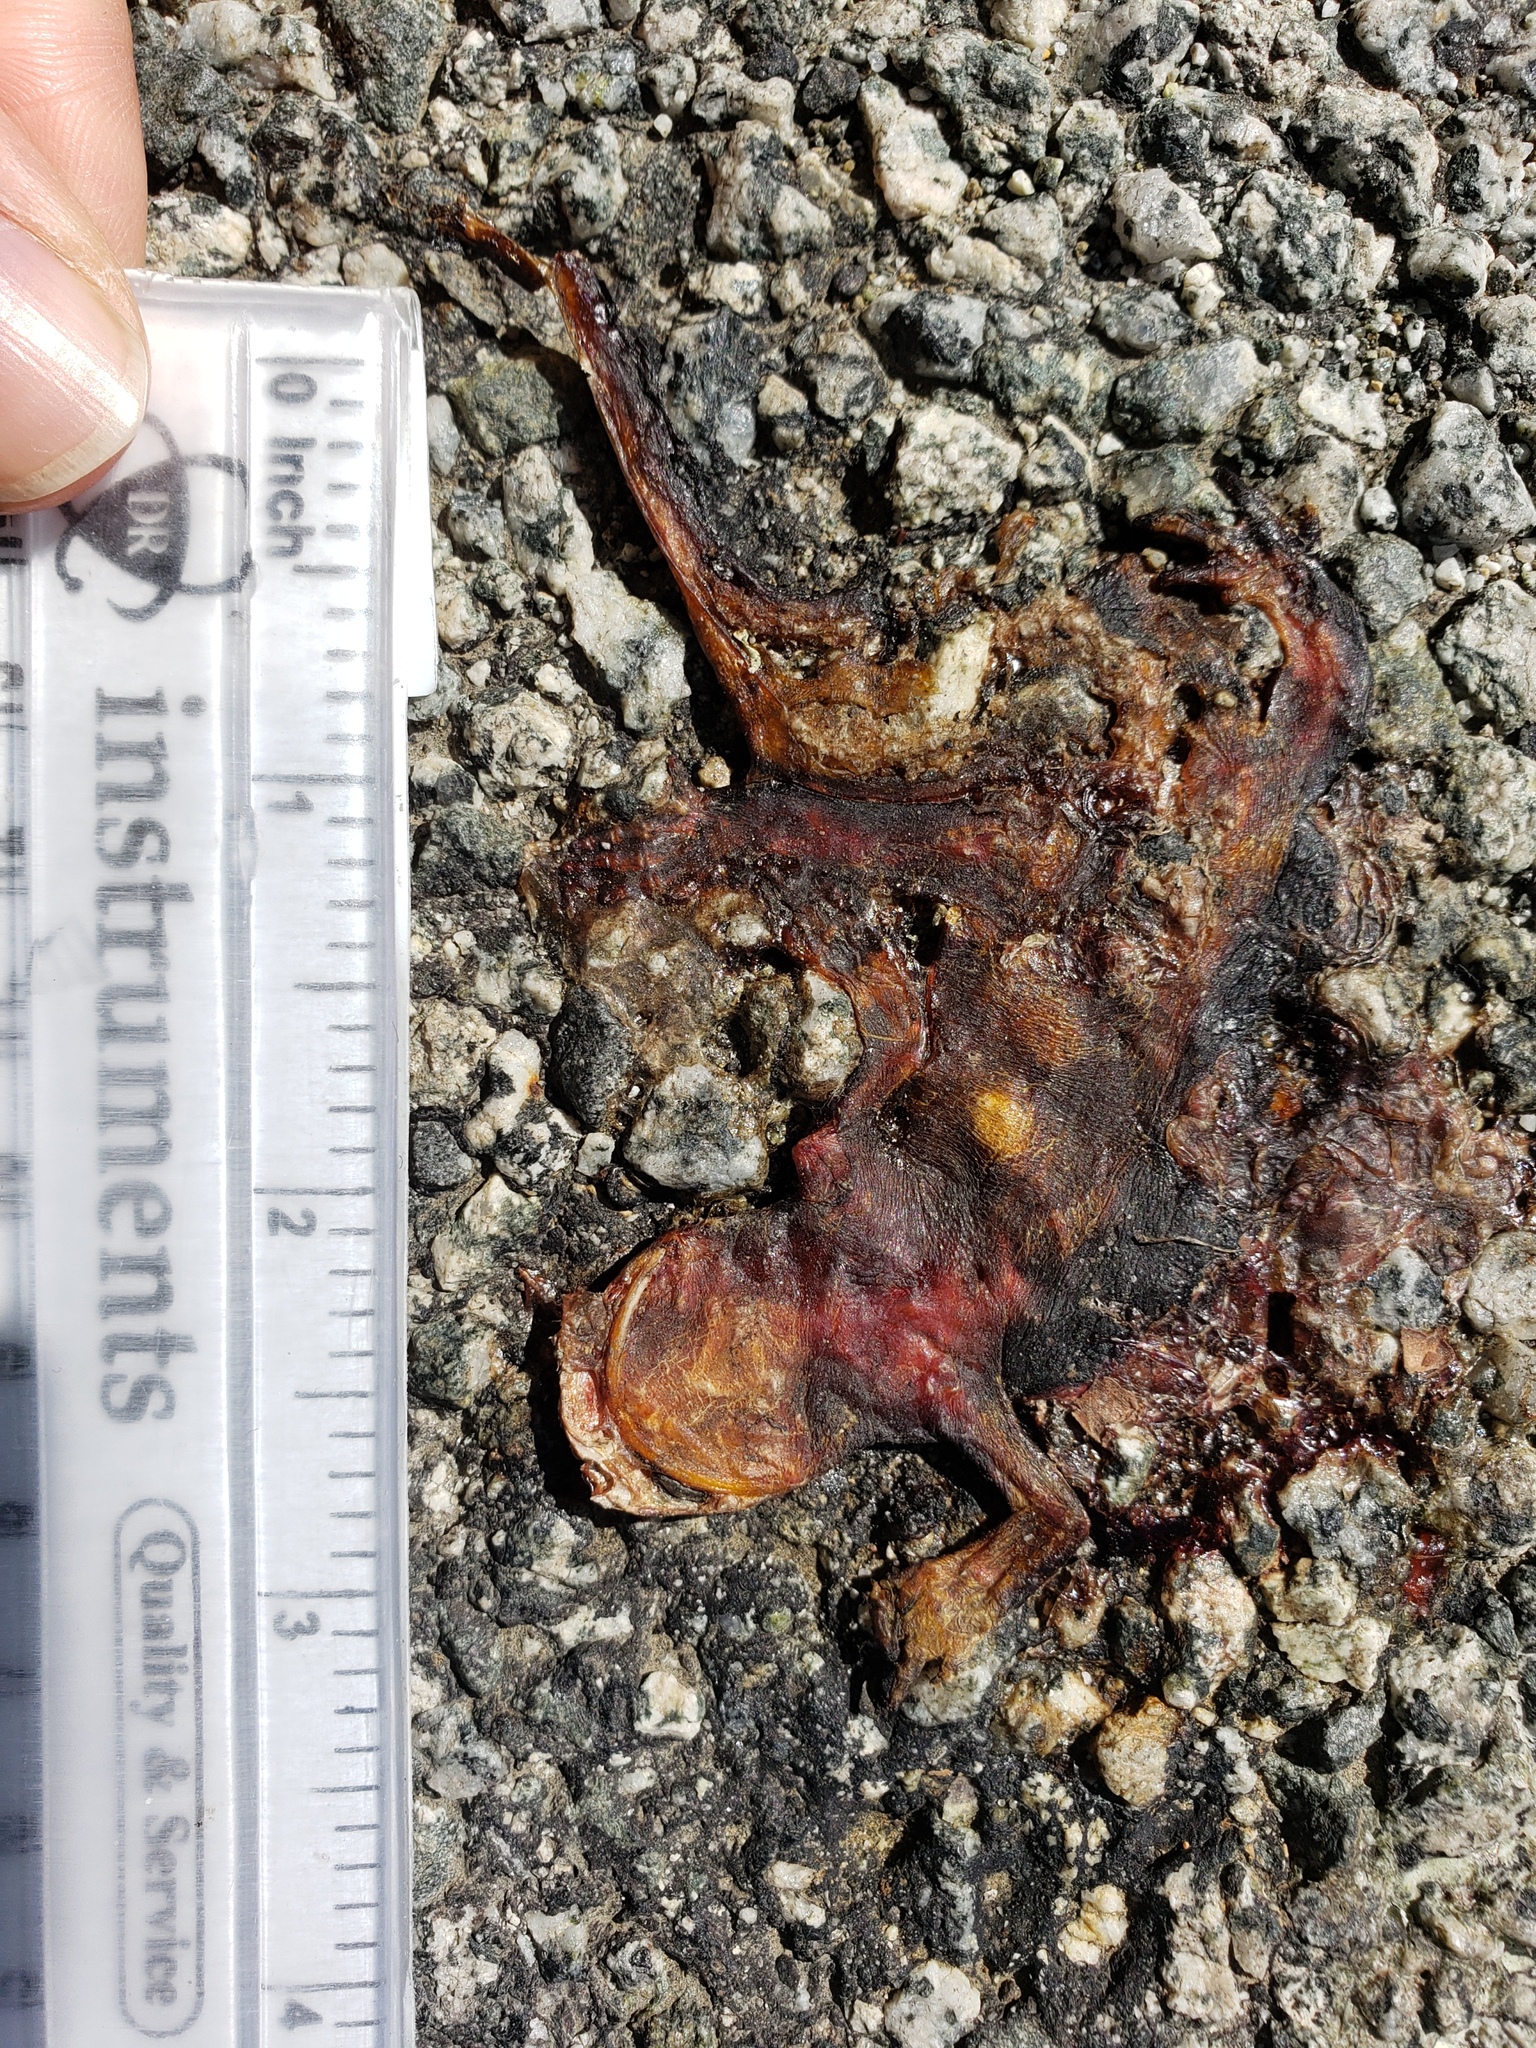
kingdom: Animalia
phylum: Chordata
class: Amphibia
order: Caudata
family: Salamandridae
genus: Taricha
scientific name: Taricha
